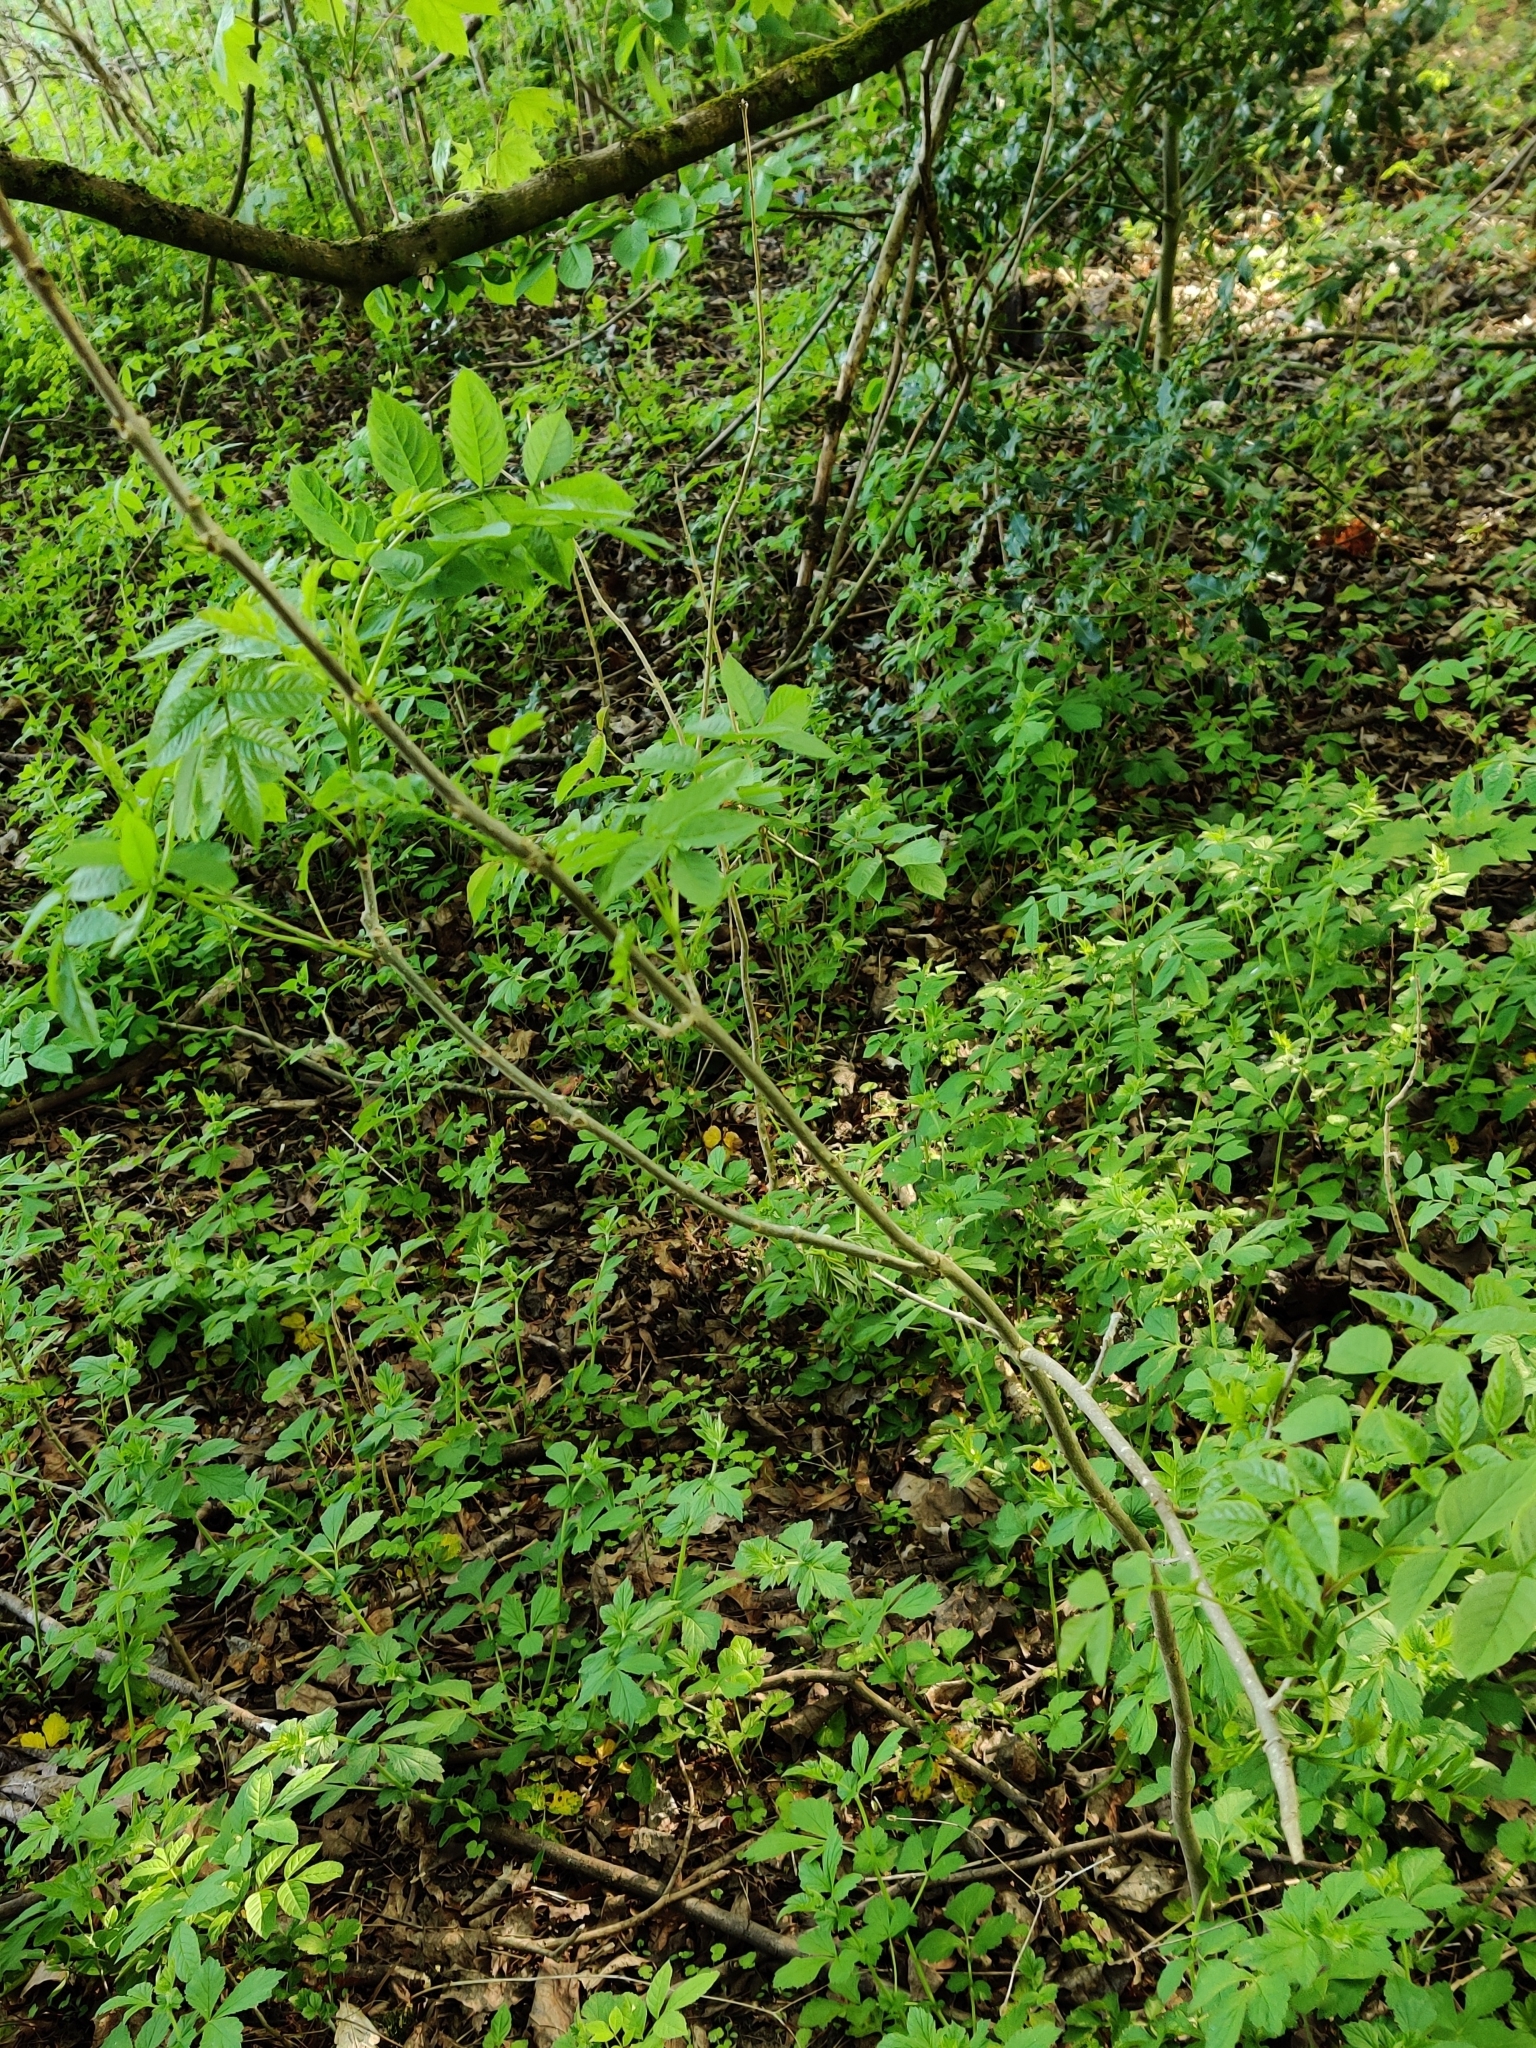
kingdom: Plantae
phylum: Tracheophyta
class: Magnoliopsida
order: Lamiales
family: Oleaceae
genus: Fraxinus
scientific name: Fraxinus excelsior
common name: European ash
